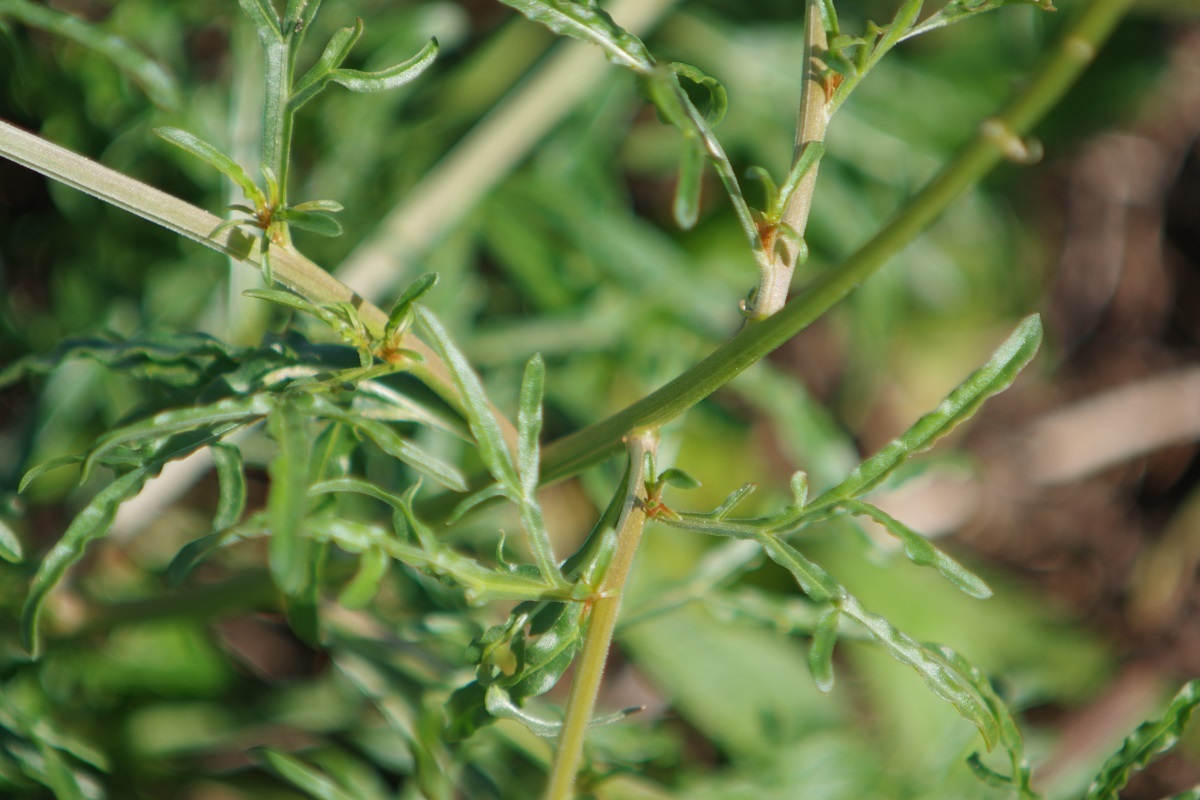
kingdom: Plantae
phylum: Tracheophyta
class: Magnoliopsida
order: Brassicales
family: Resedaceae
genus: Reseda
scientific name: Reseda lutea
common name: Wild mignonette
